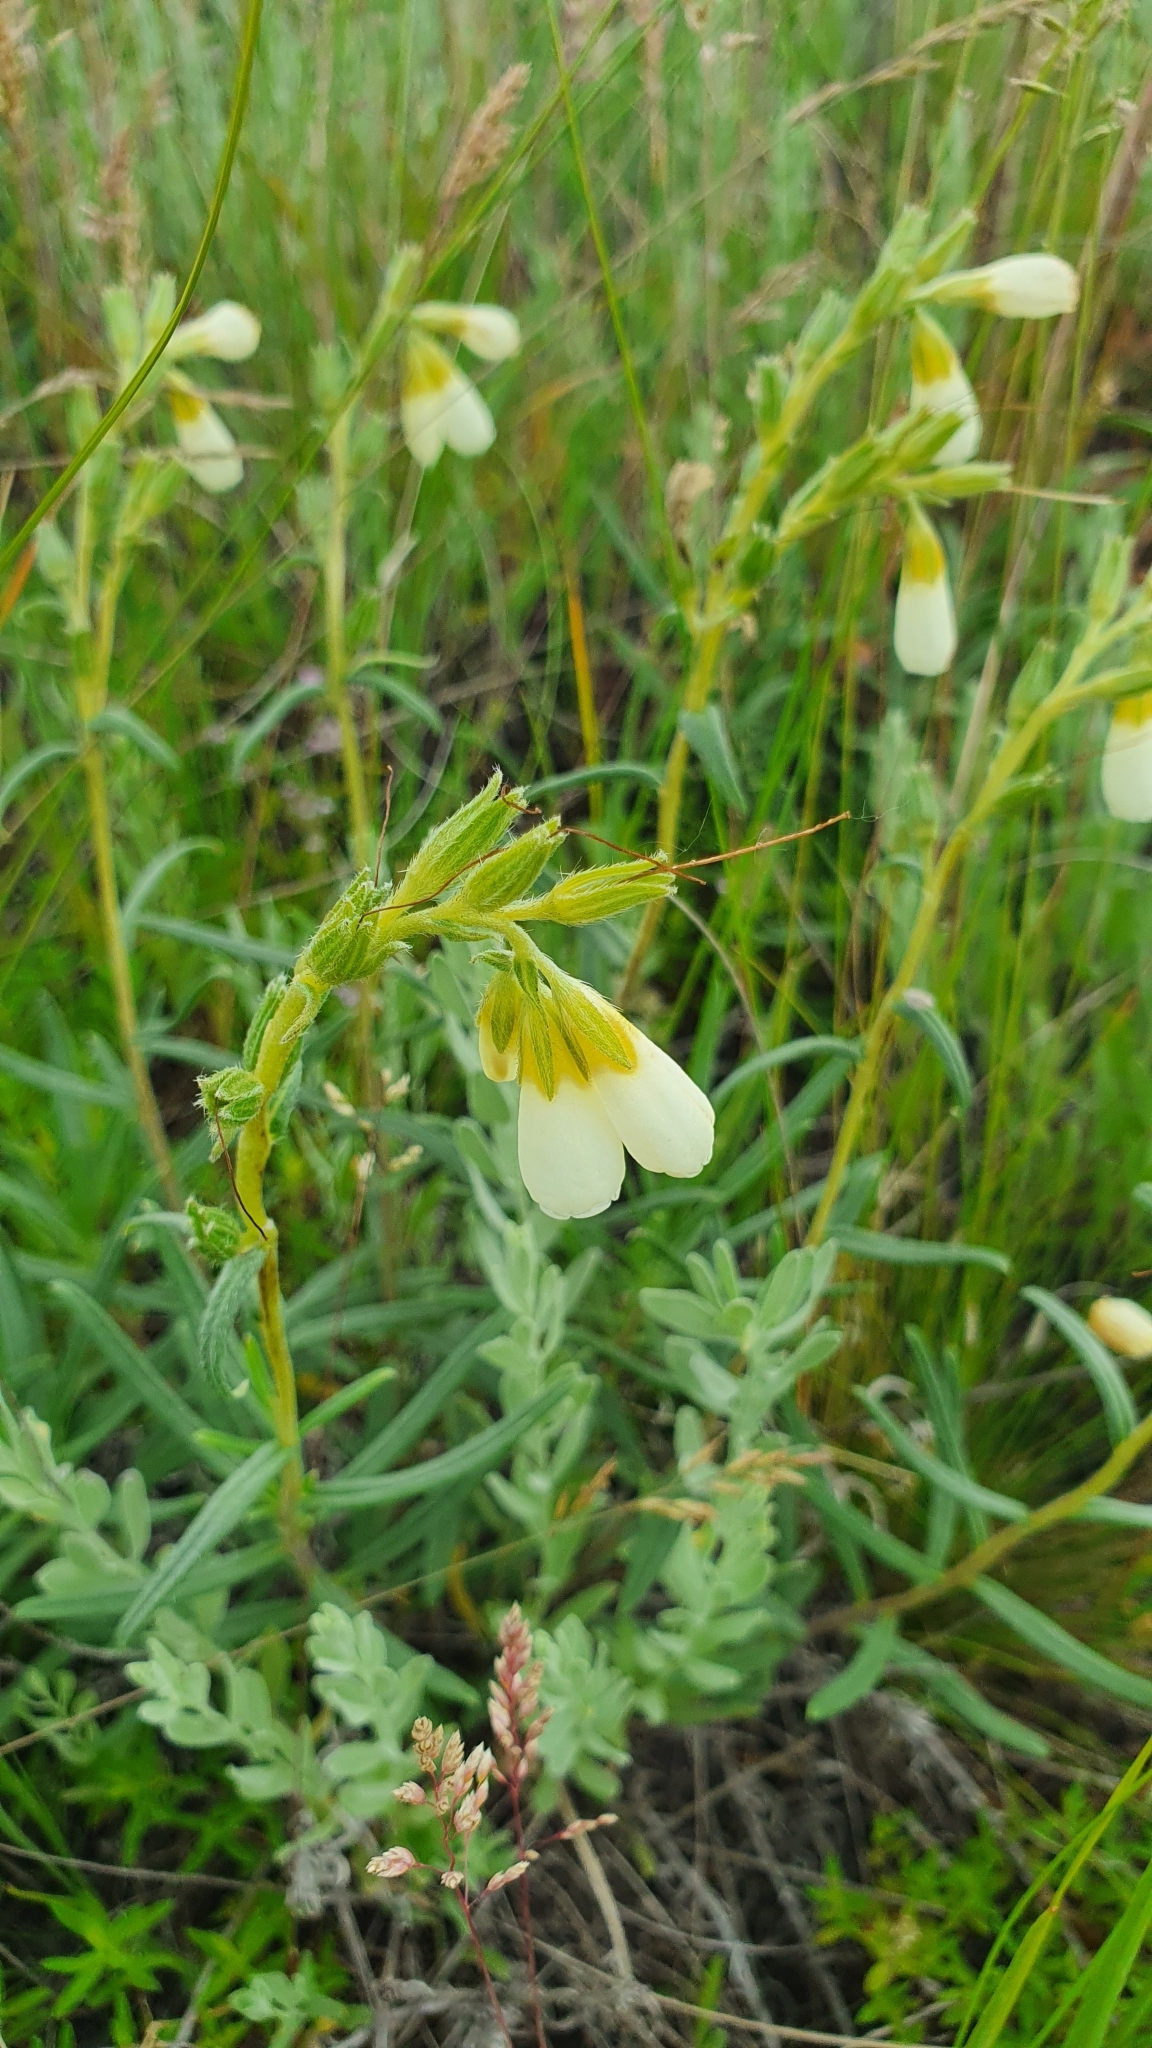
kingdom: Plantae
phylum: Tracheophyta
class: Magnoliopsida
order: Boraginales
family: Boraginaceae
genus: Onosma
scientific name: Onosma simplicissima
